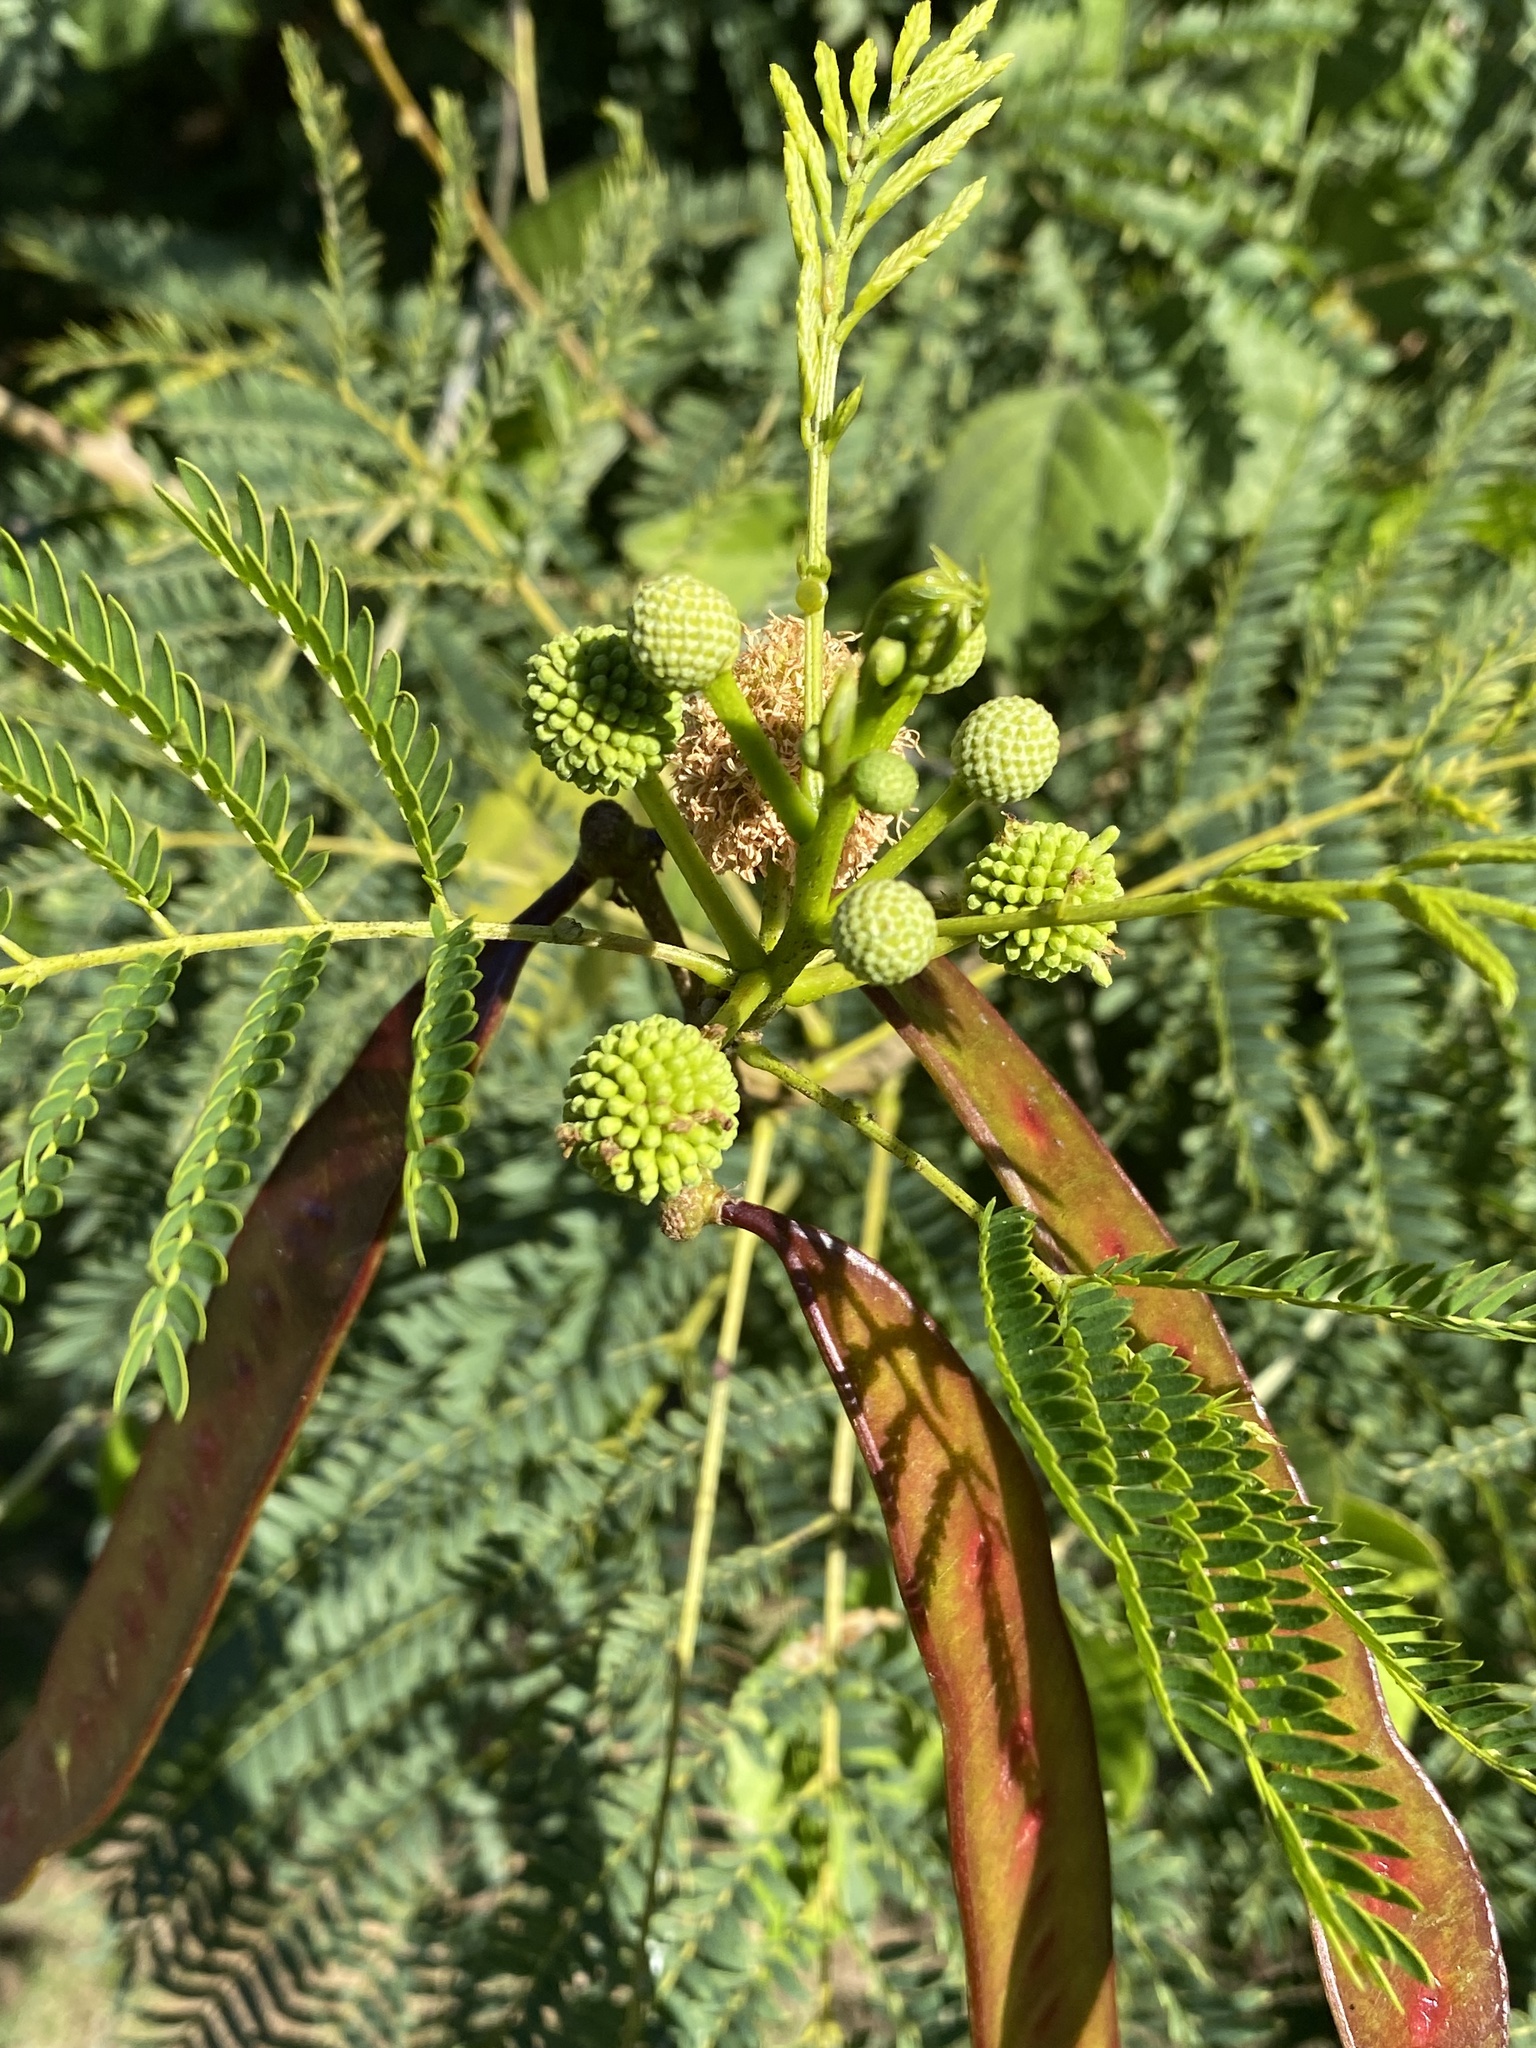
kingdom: Plantae
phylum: Tracheophyta
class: Magnoliopsida
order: Fabales
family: Fabaceae
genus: Leucaena
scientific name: Leucaena leucocephala
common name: White leadtree
